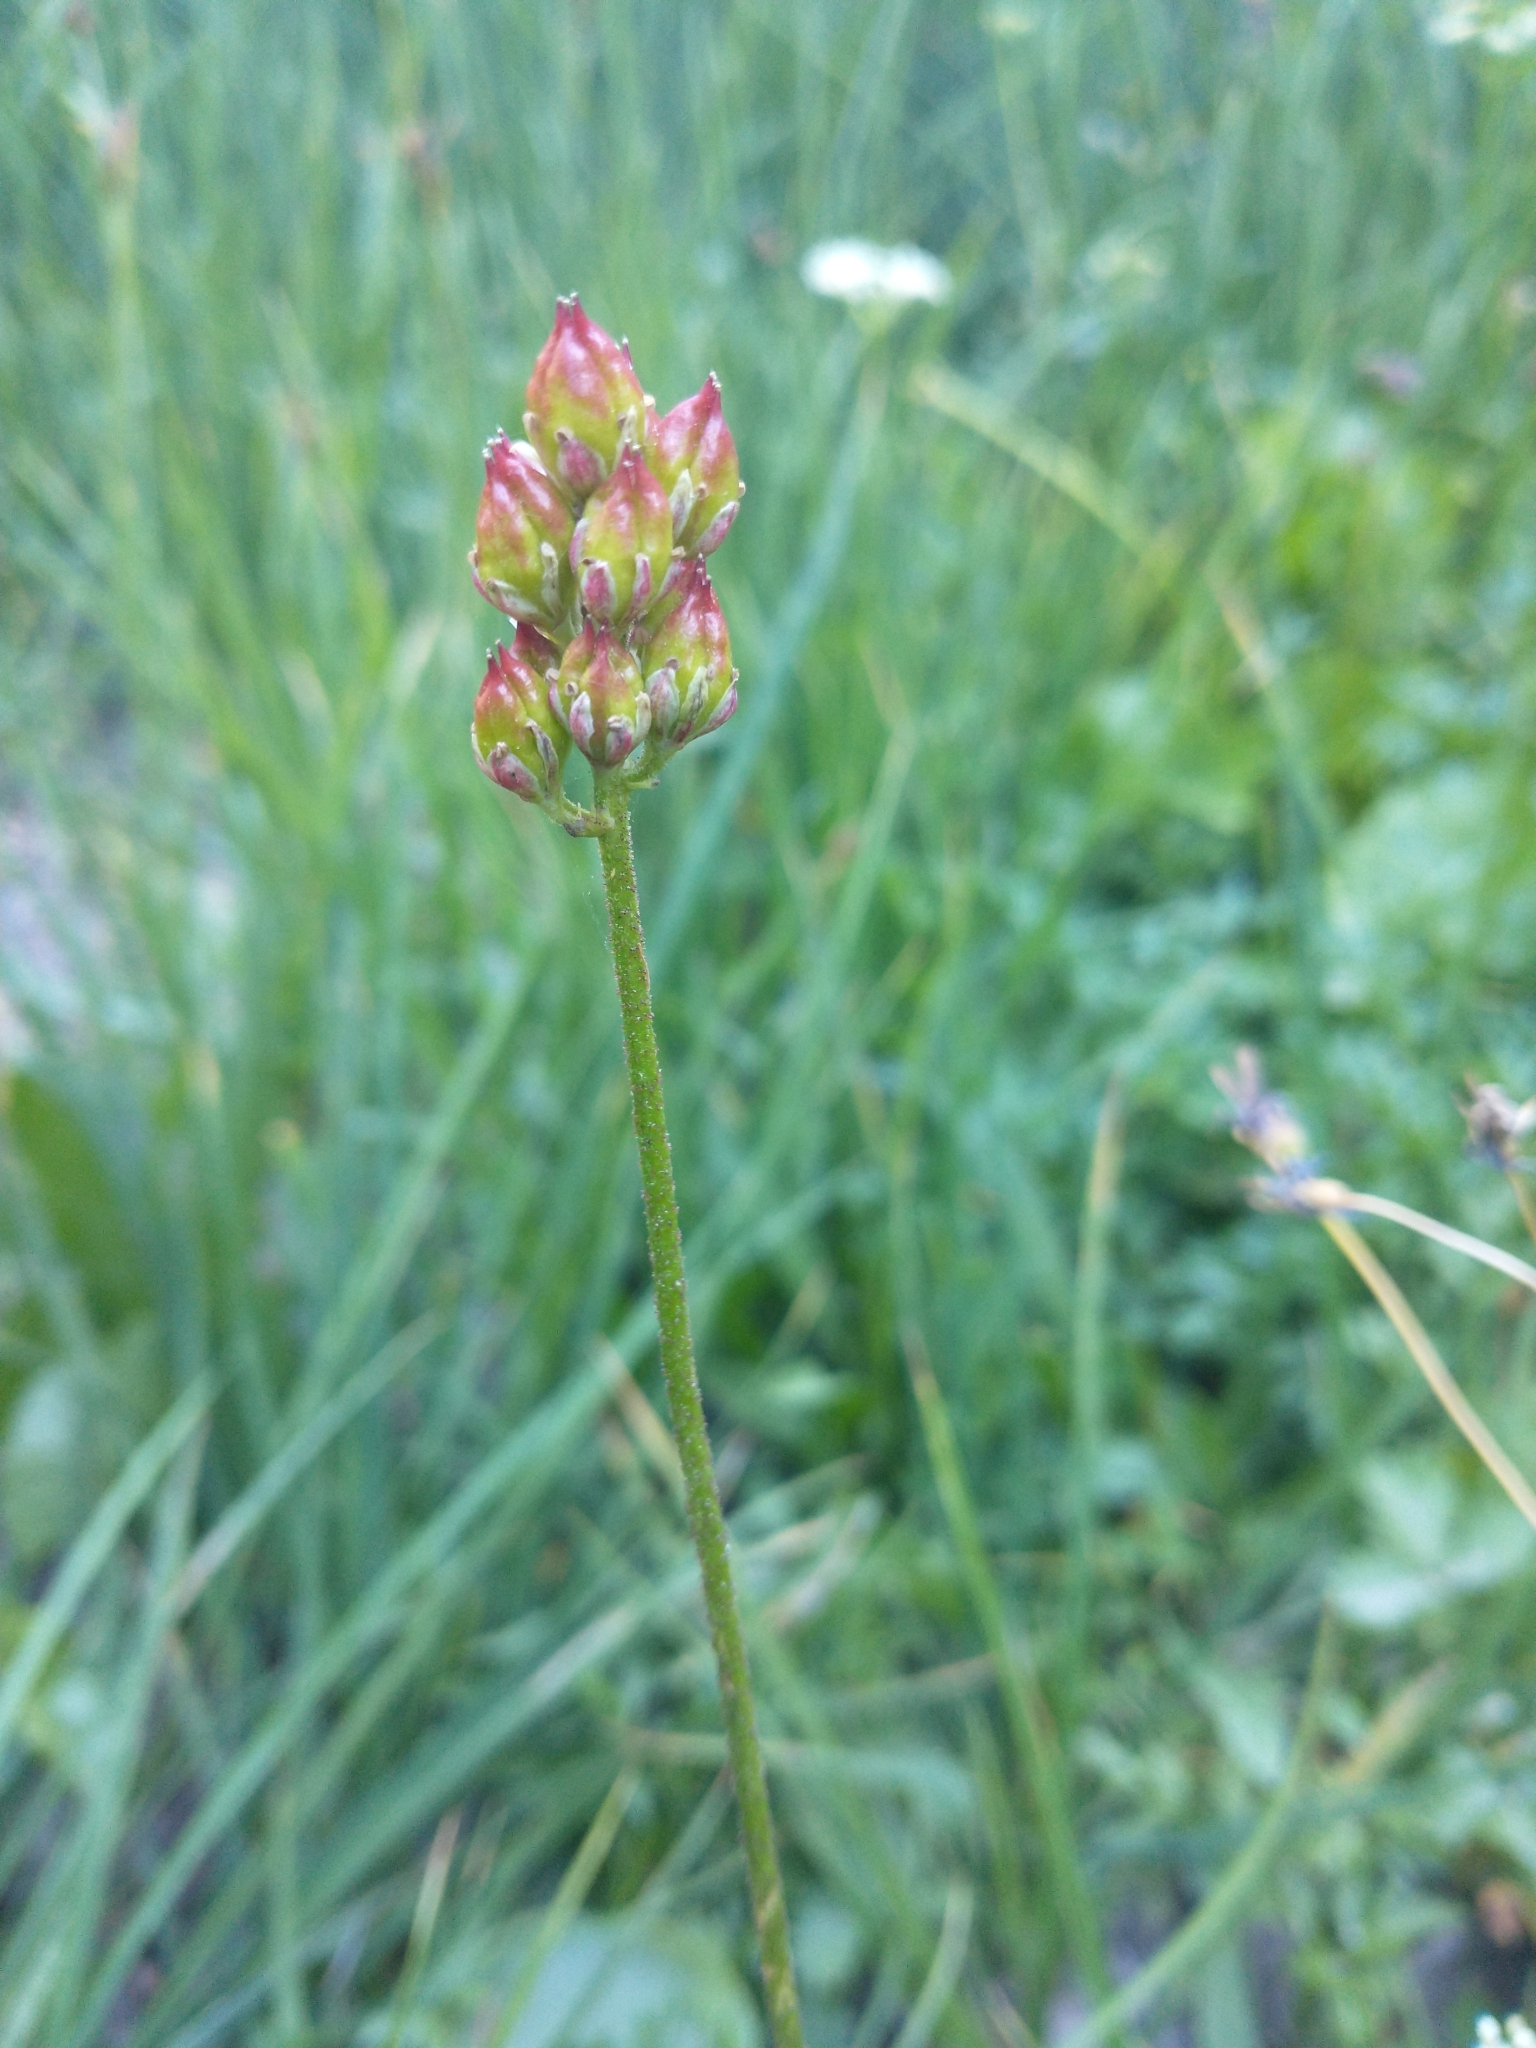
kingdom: Plantae
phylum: Tracheophyta
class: Liliopsida
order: Alismatales
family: Tofieldiaceae
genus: Triantha
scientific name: Triantha occidentalis
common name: Western false asphodel
